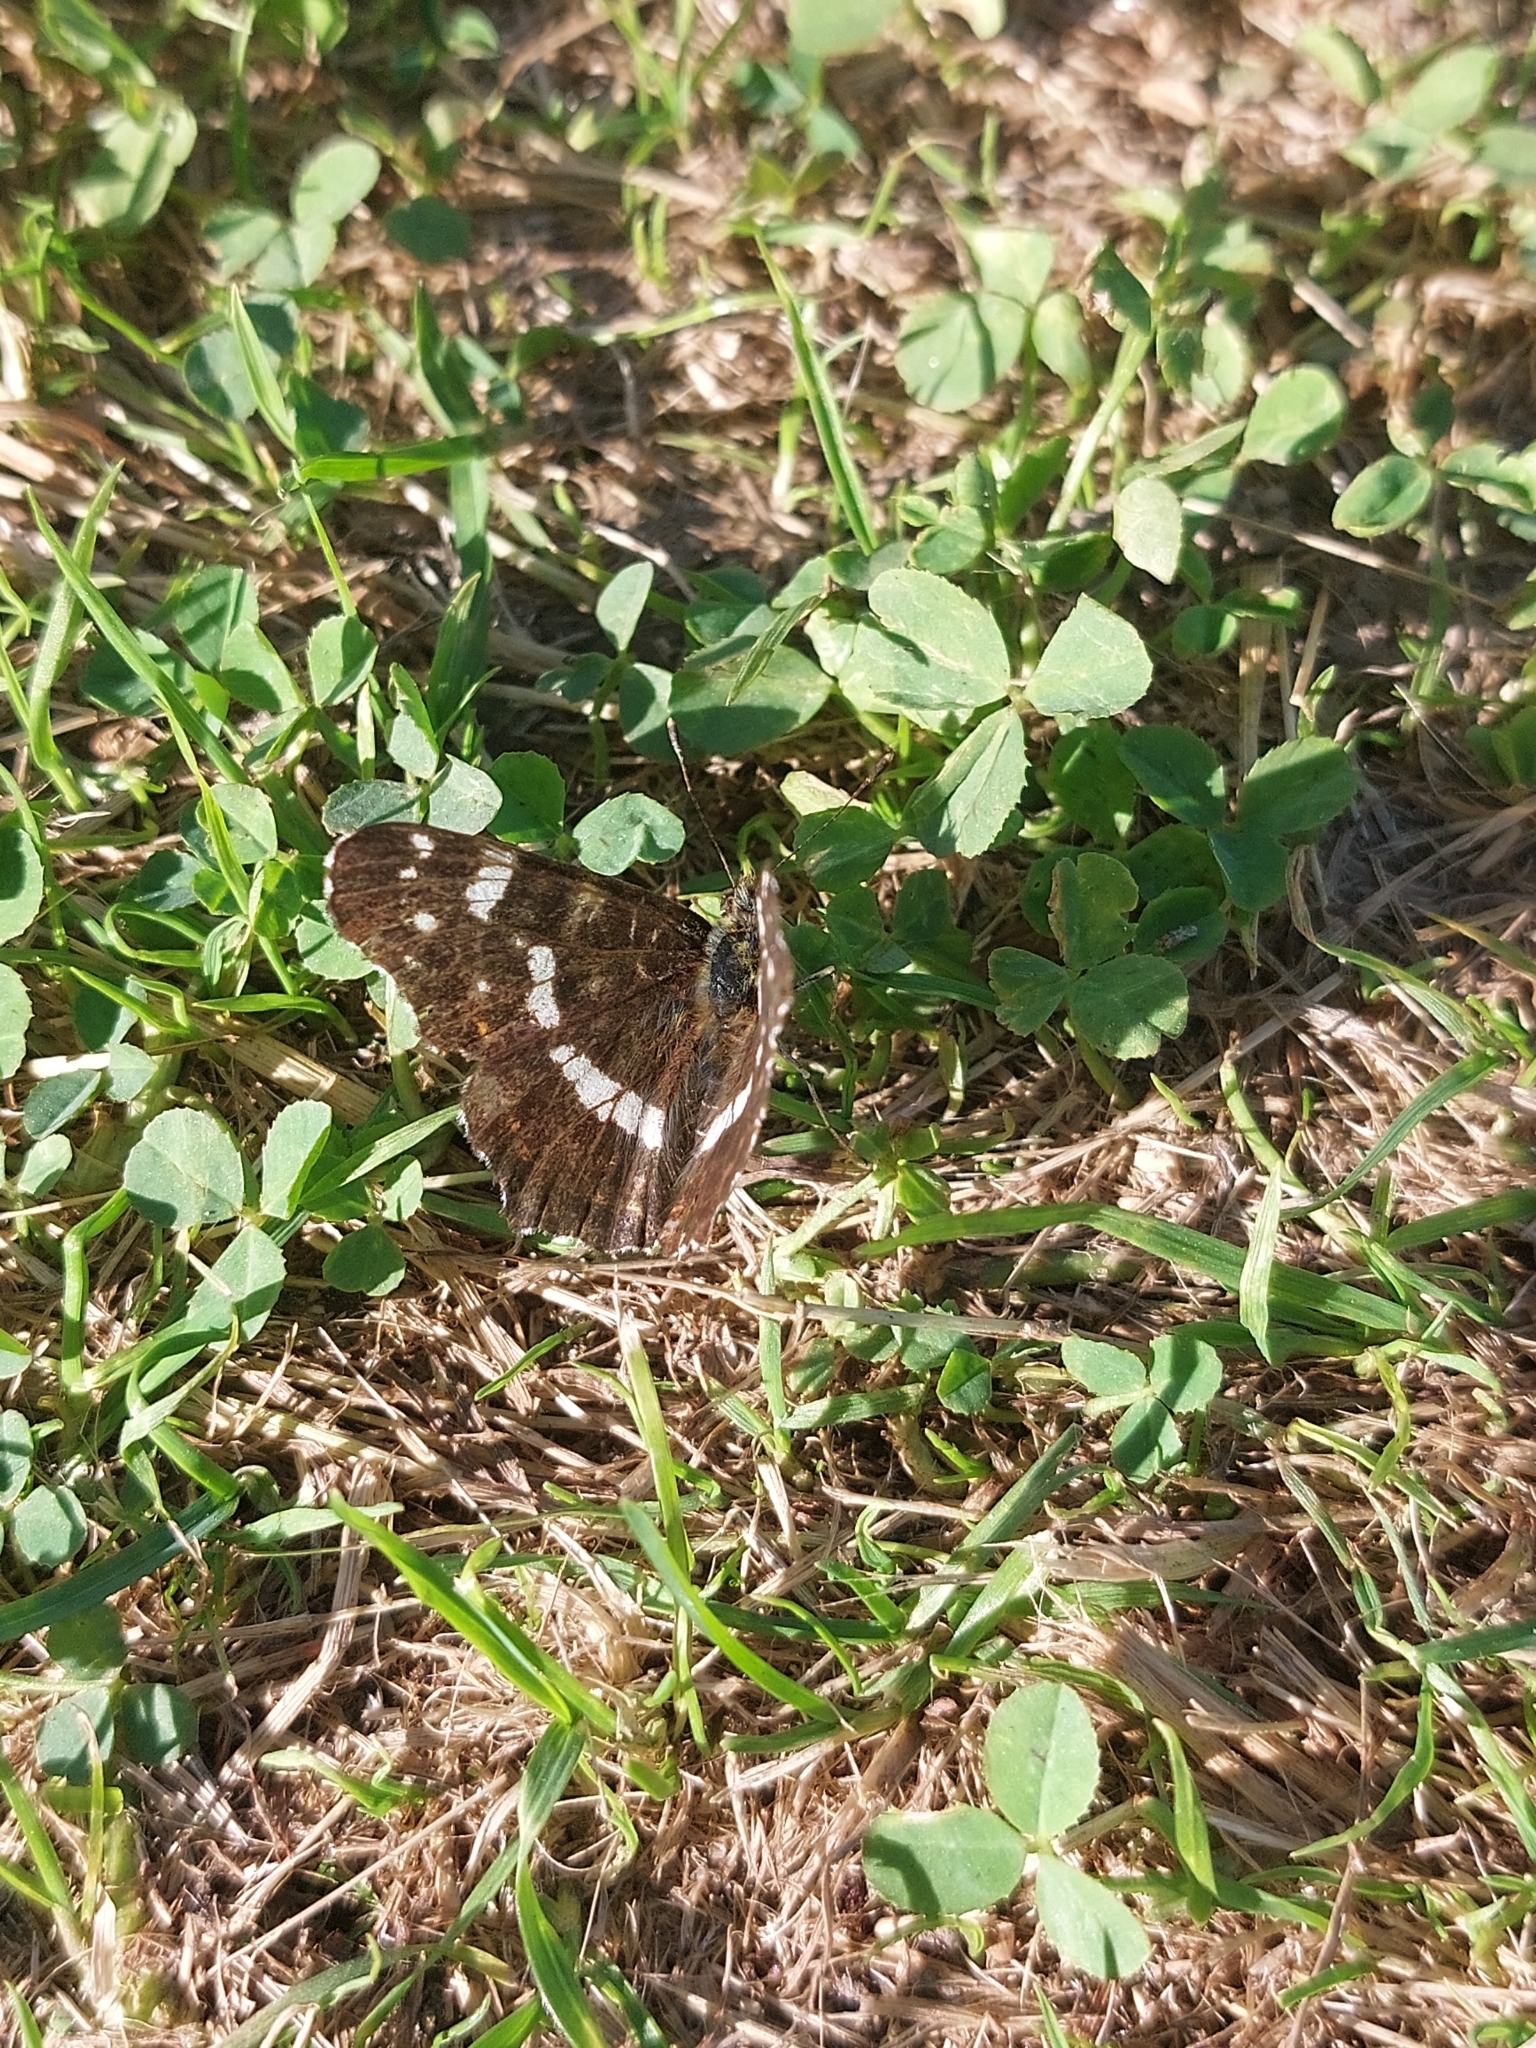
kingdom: Animalia
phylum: Arthropoda
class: Insecta
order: Lepidoptera
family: Nymphalidae
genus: Araschnia
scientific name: Araschnia levana
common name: Map butterfly
